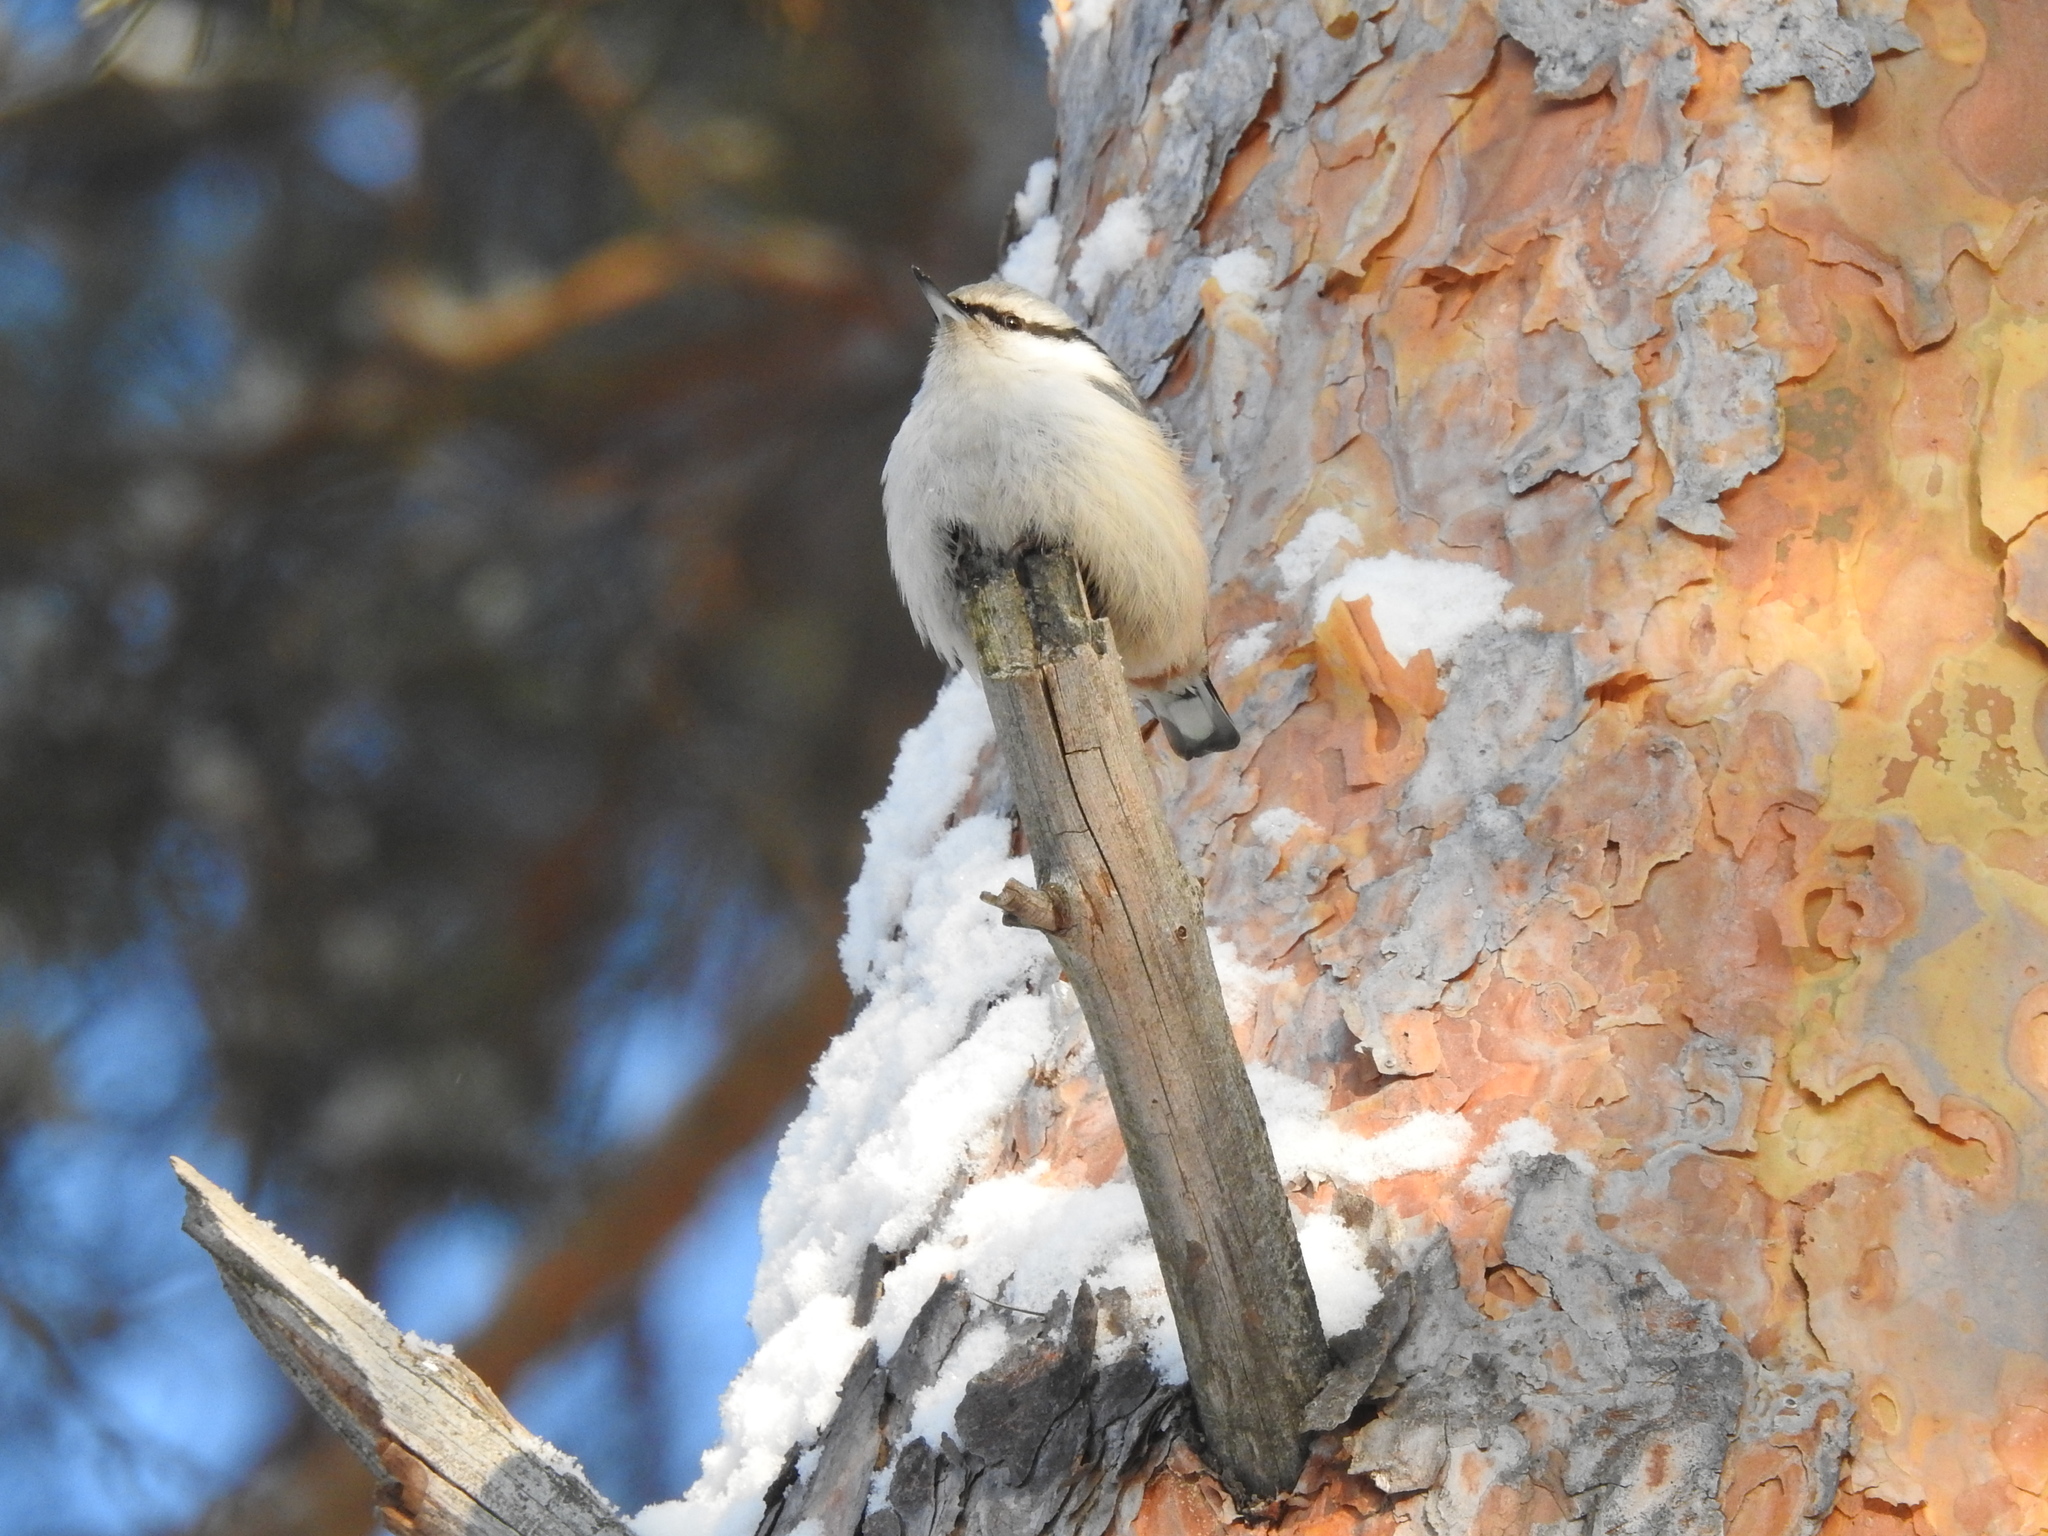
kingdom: Animalia
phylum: Chordata
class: Aves
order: Passeriformes
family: Sittidae
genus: Sitta
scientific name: Sitta europaea
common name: Eurasian nuthatch
